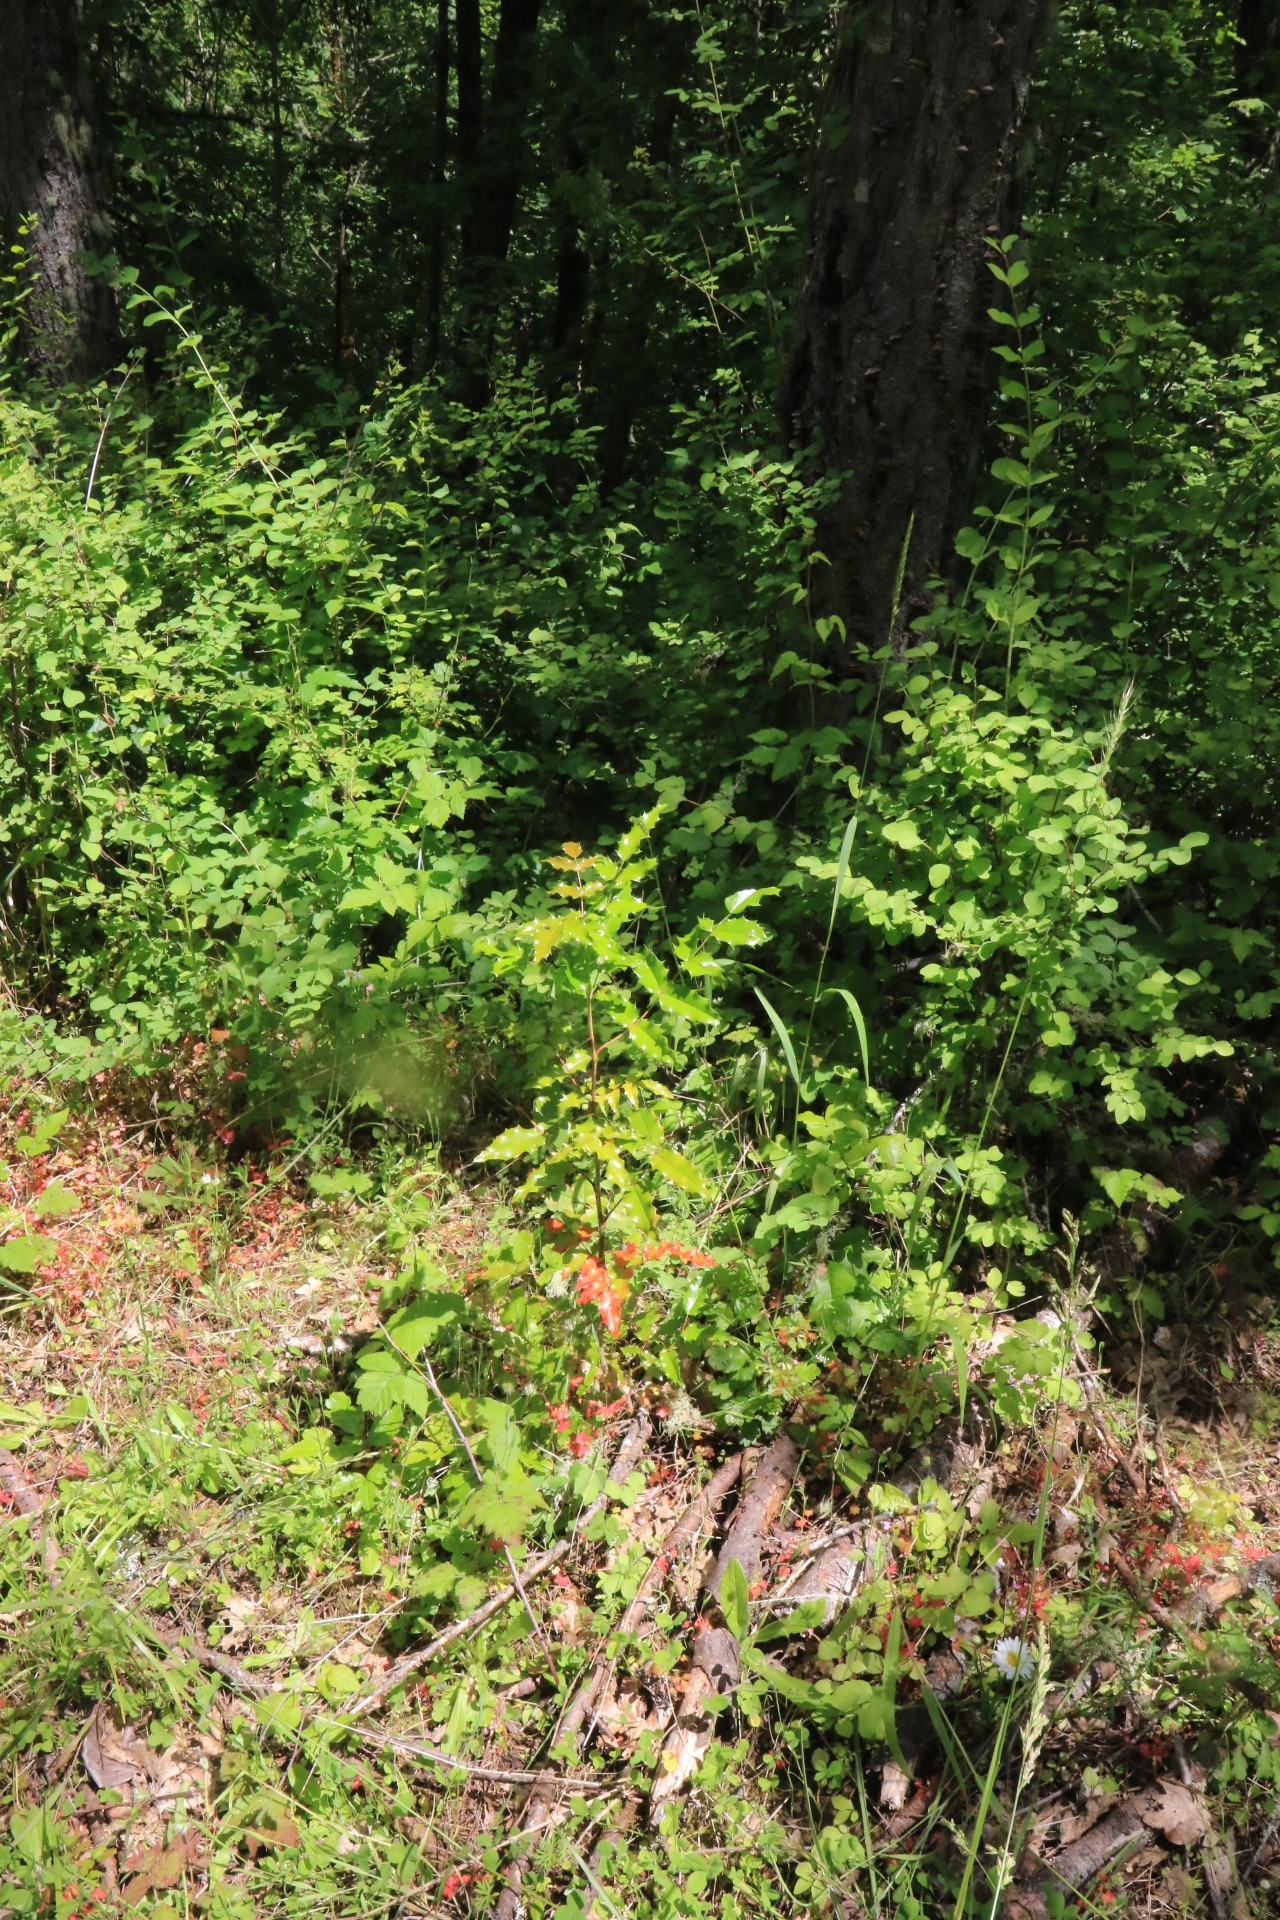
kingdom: Plantae
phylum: Tracheophyta
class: Magnoliopsida
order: Ranunculales
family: Berberidaceae
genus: Mahonia
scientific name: Mahonia aquifolium
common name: Oregon-grape
